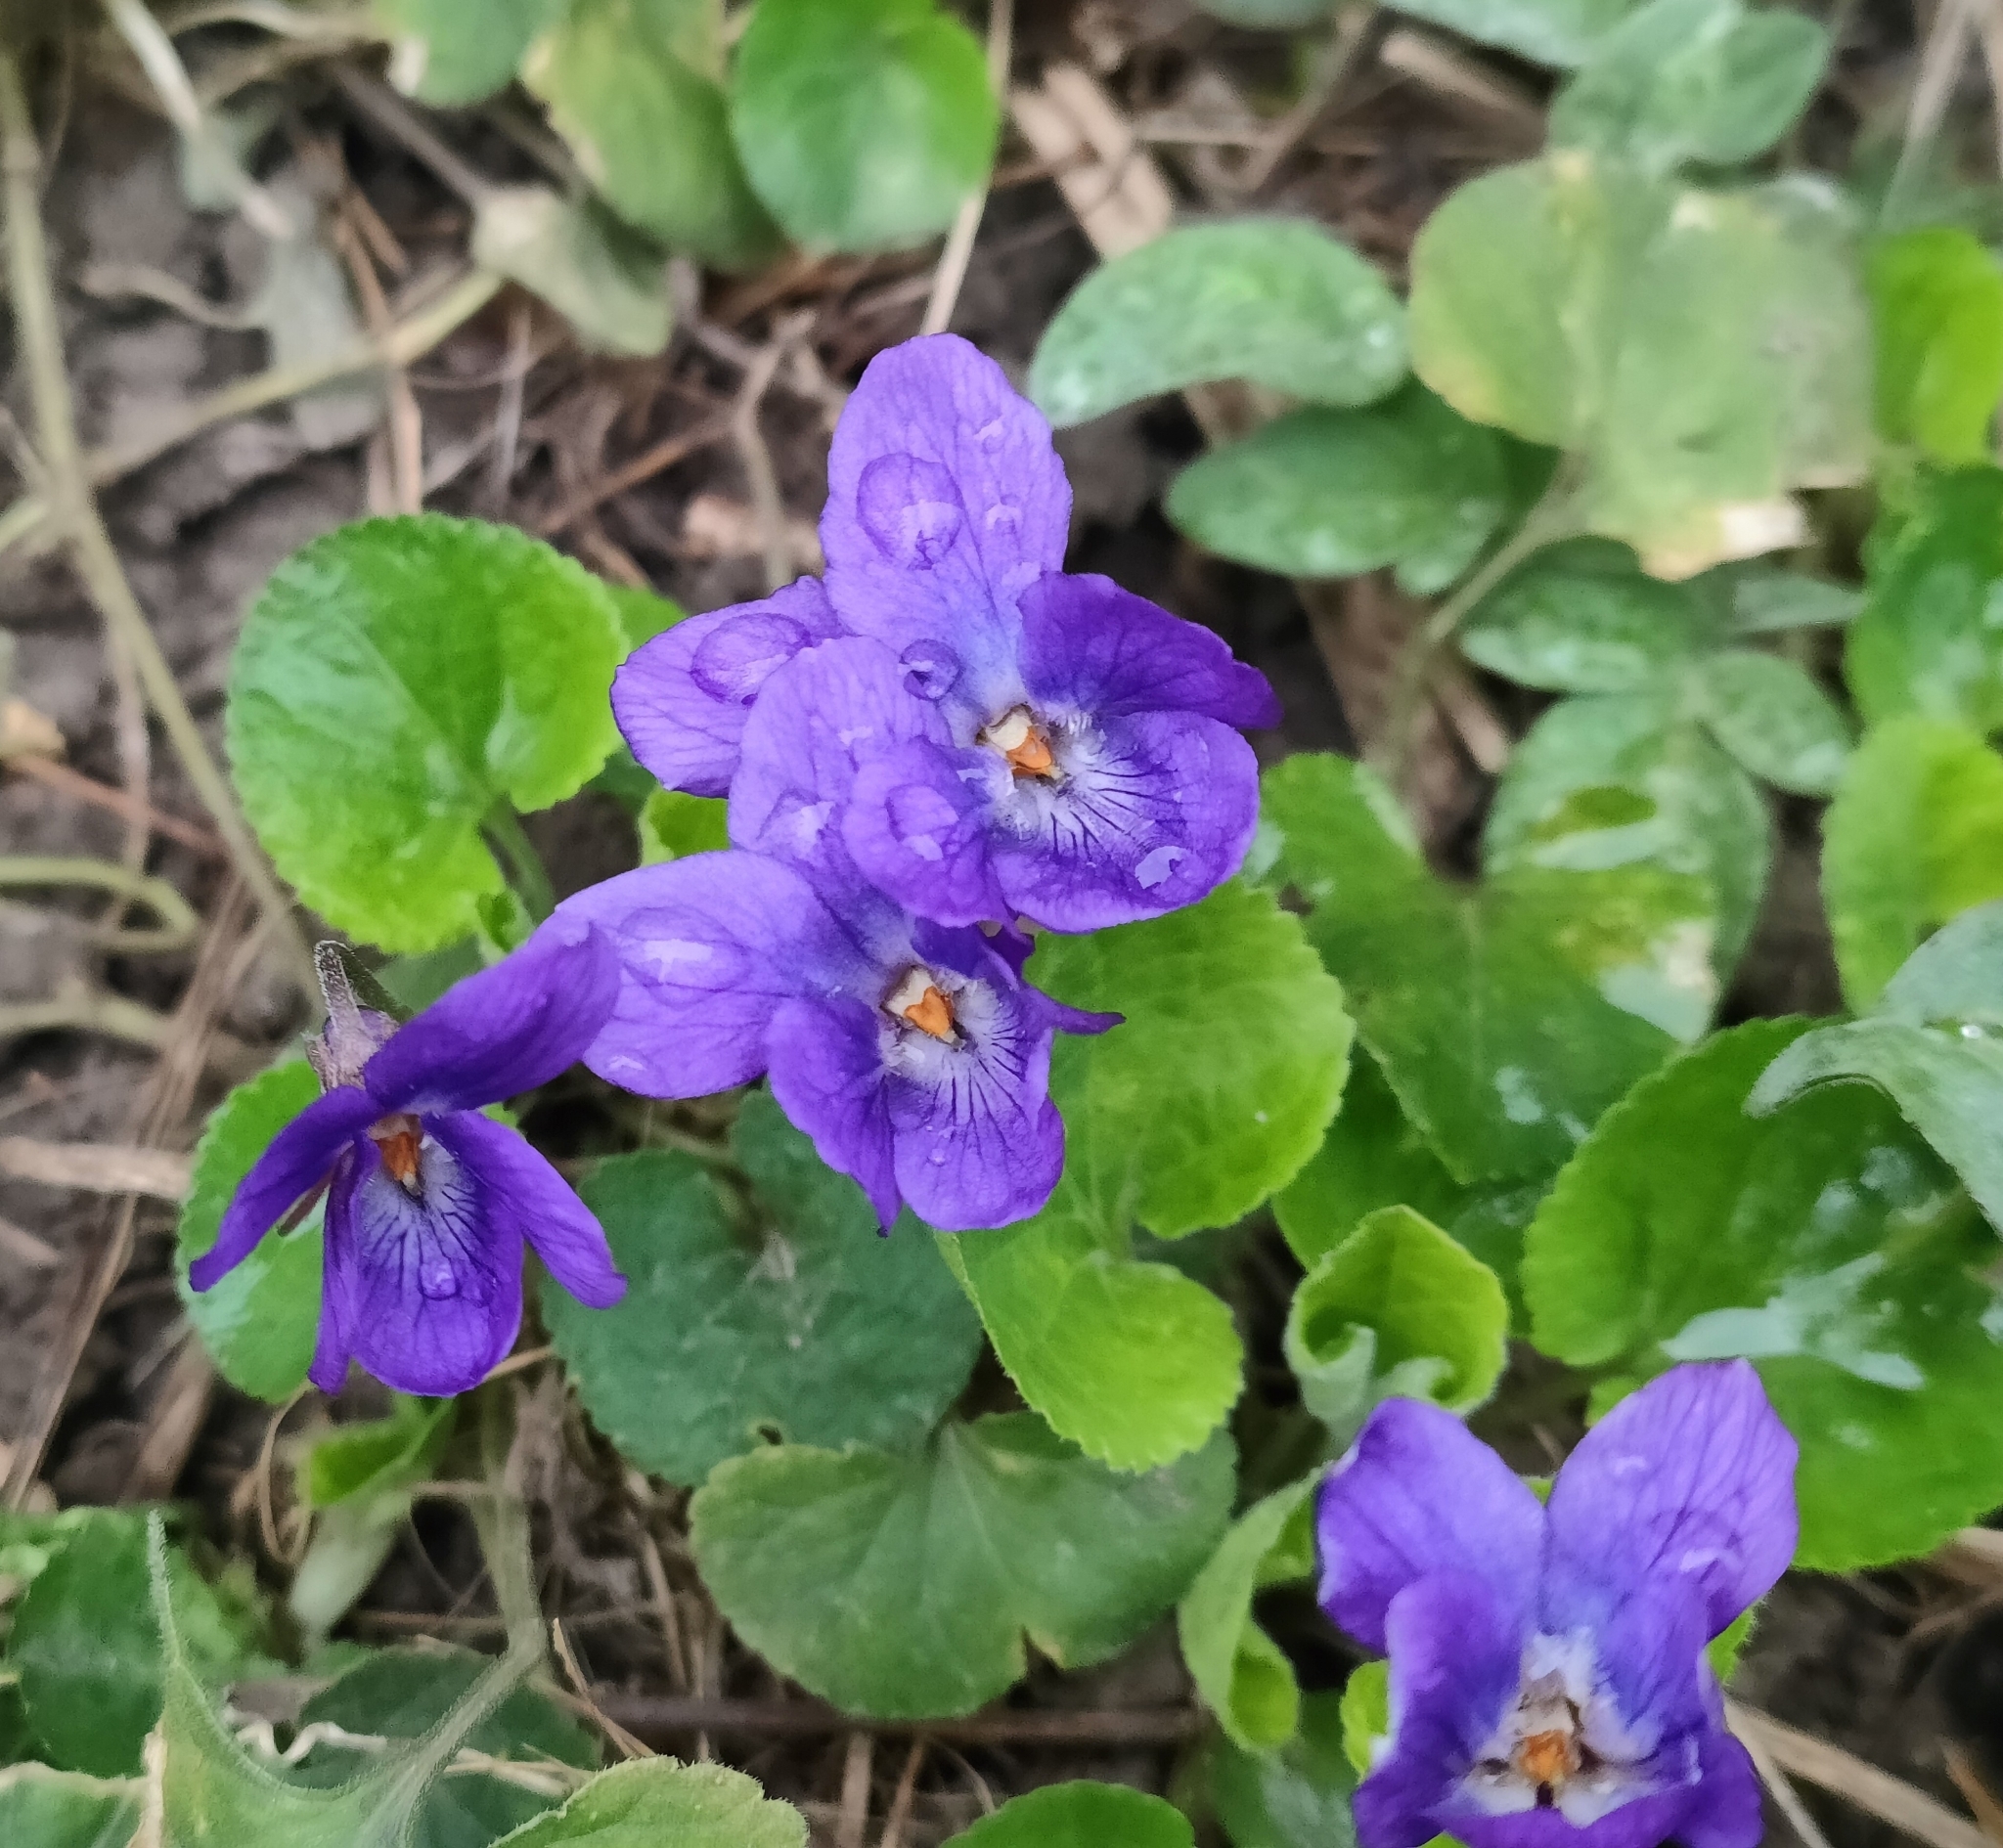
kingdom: Plantae
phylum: Tracheophyta
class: Magnoliopsida
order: Malpighiales
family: Violaceae
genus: Viola
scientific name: Viola odorata
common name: Sweet violet
